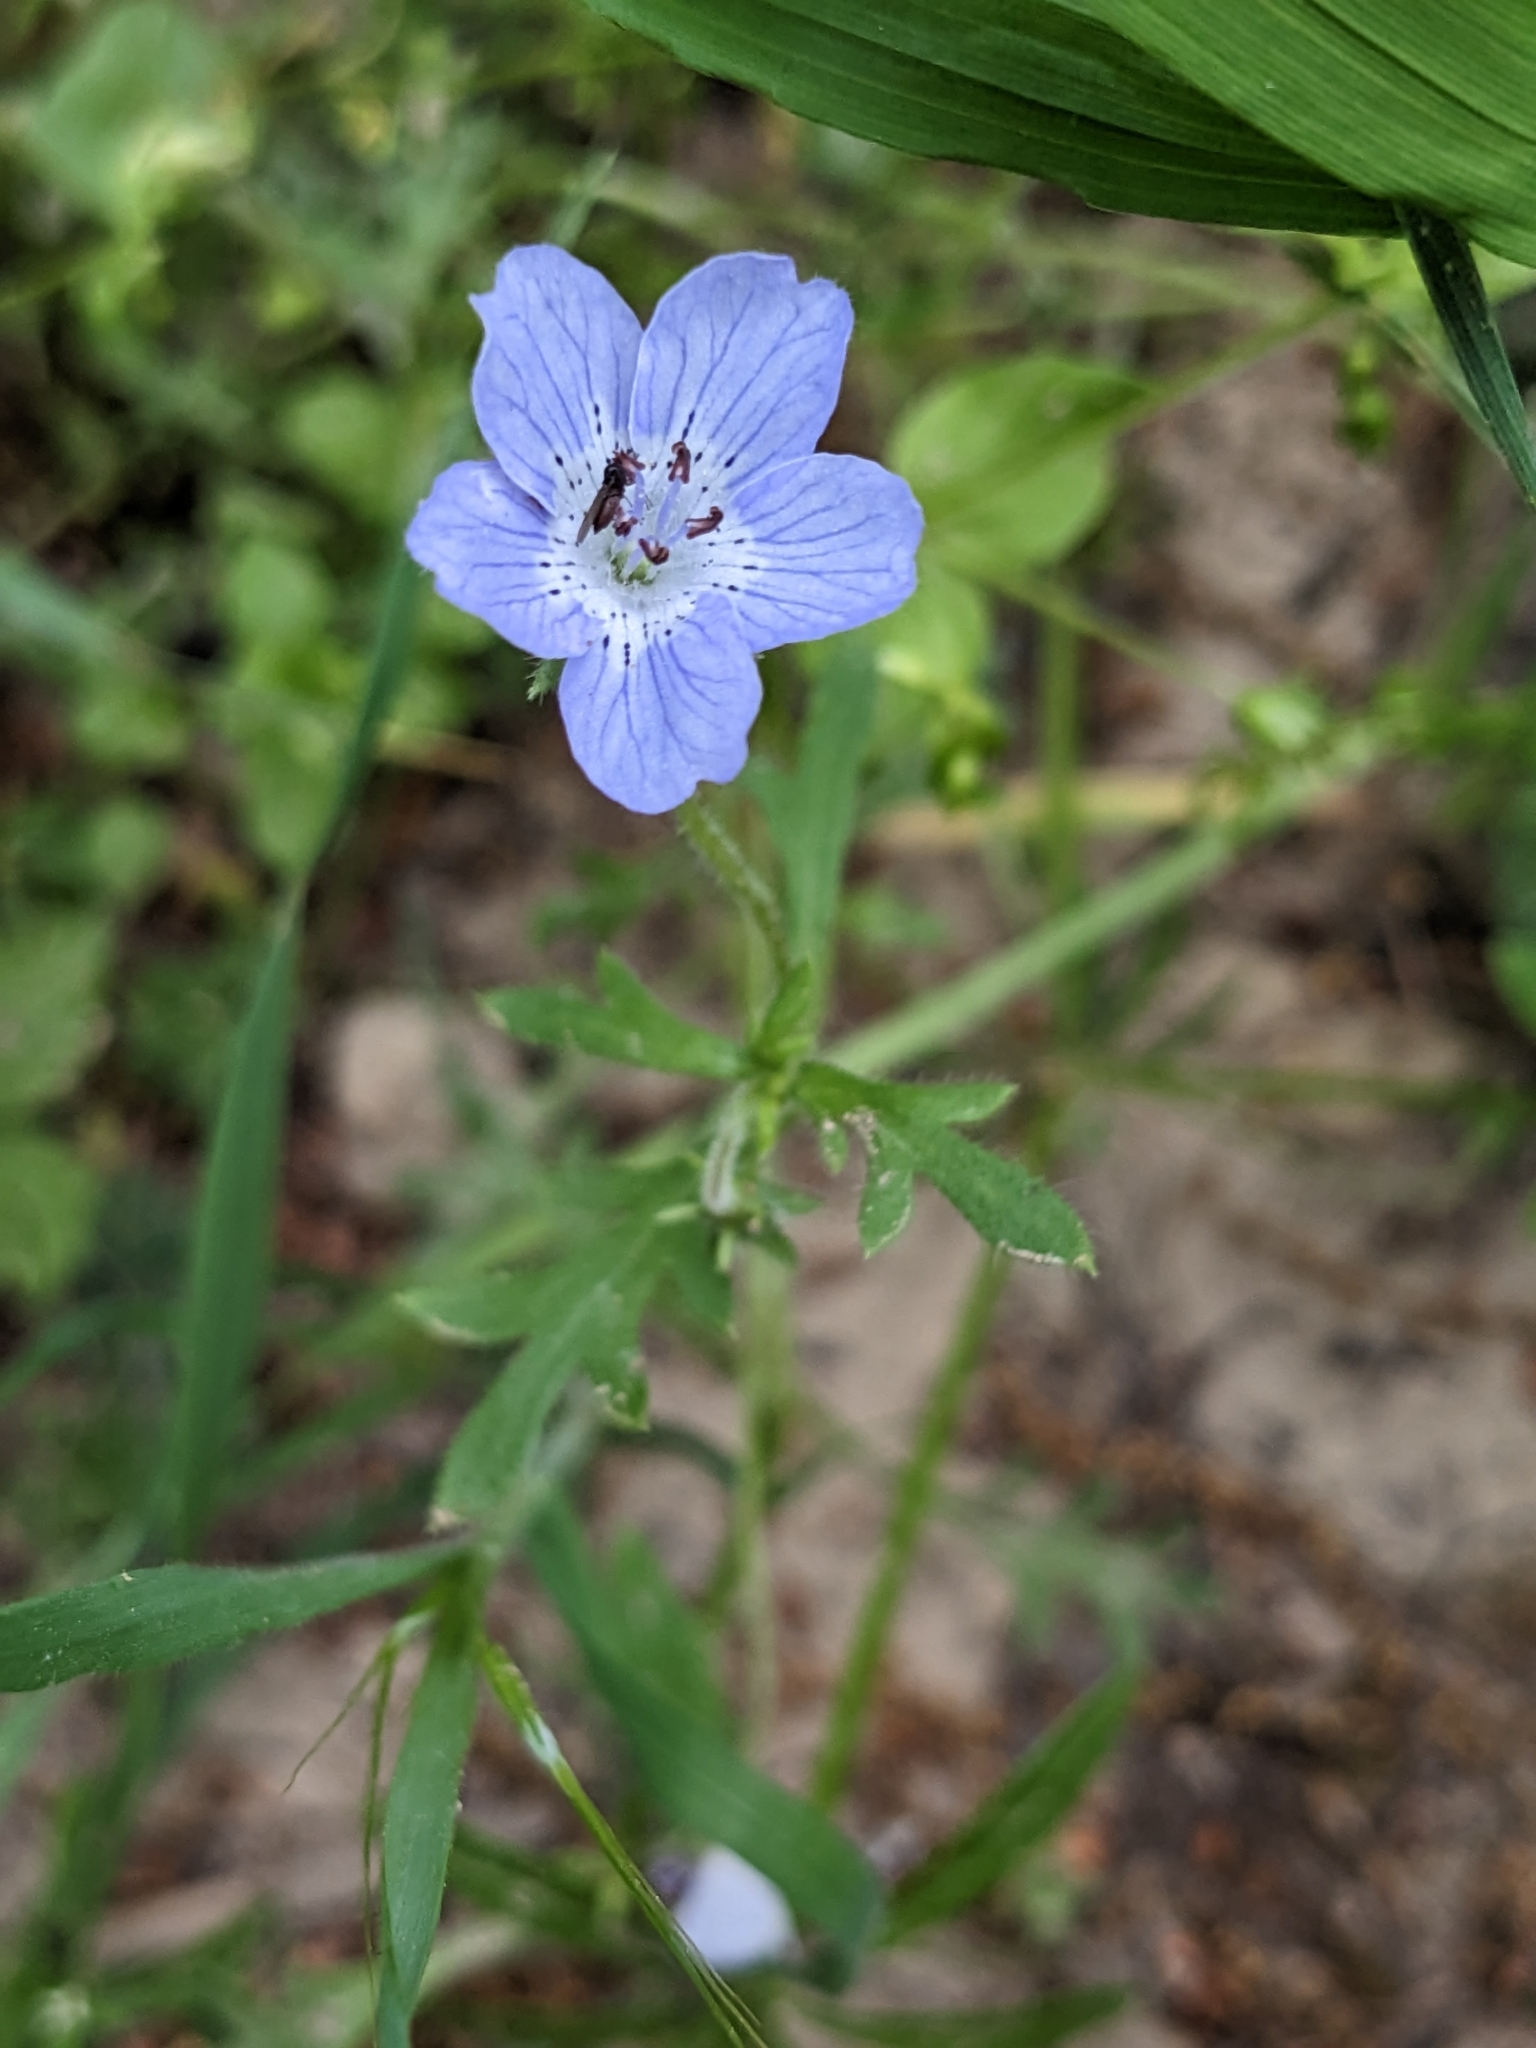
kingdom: Plantae
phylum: Tracheophyta
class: Magnoliopsida
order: Boraginales
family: Hydrophyllaceae
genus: Nemophila
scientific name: Nemophila menziesii
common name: Baby's-blue-eyes
